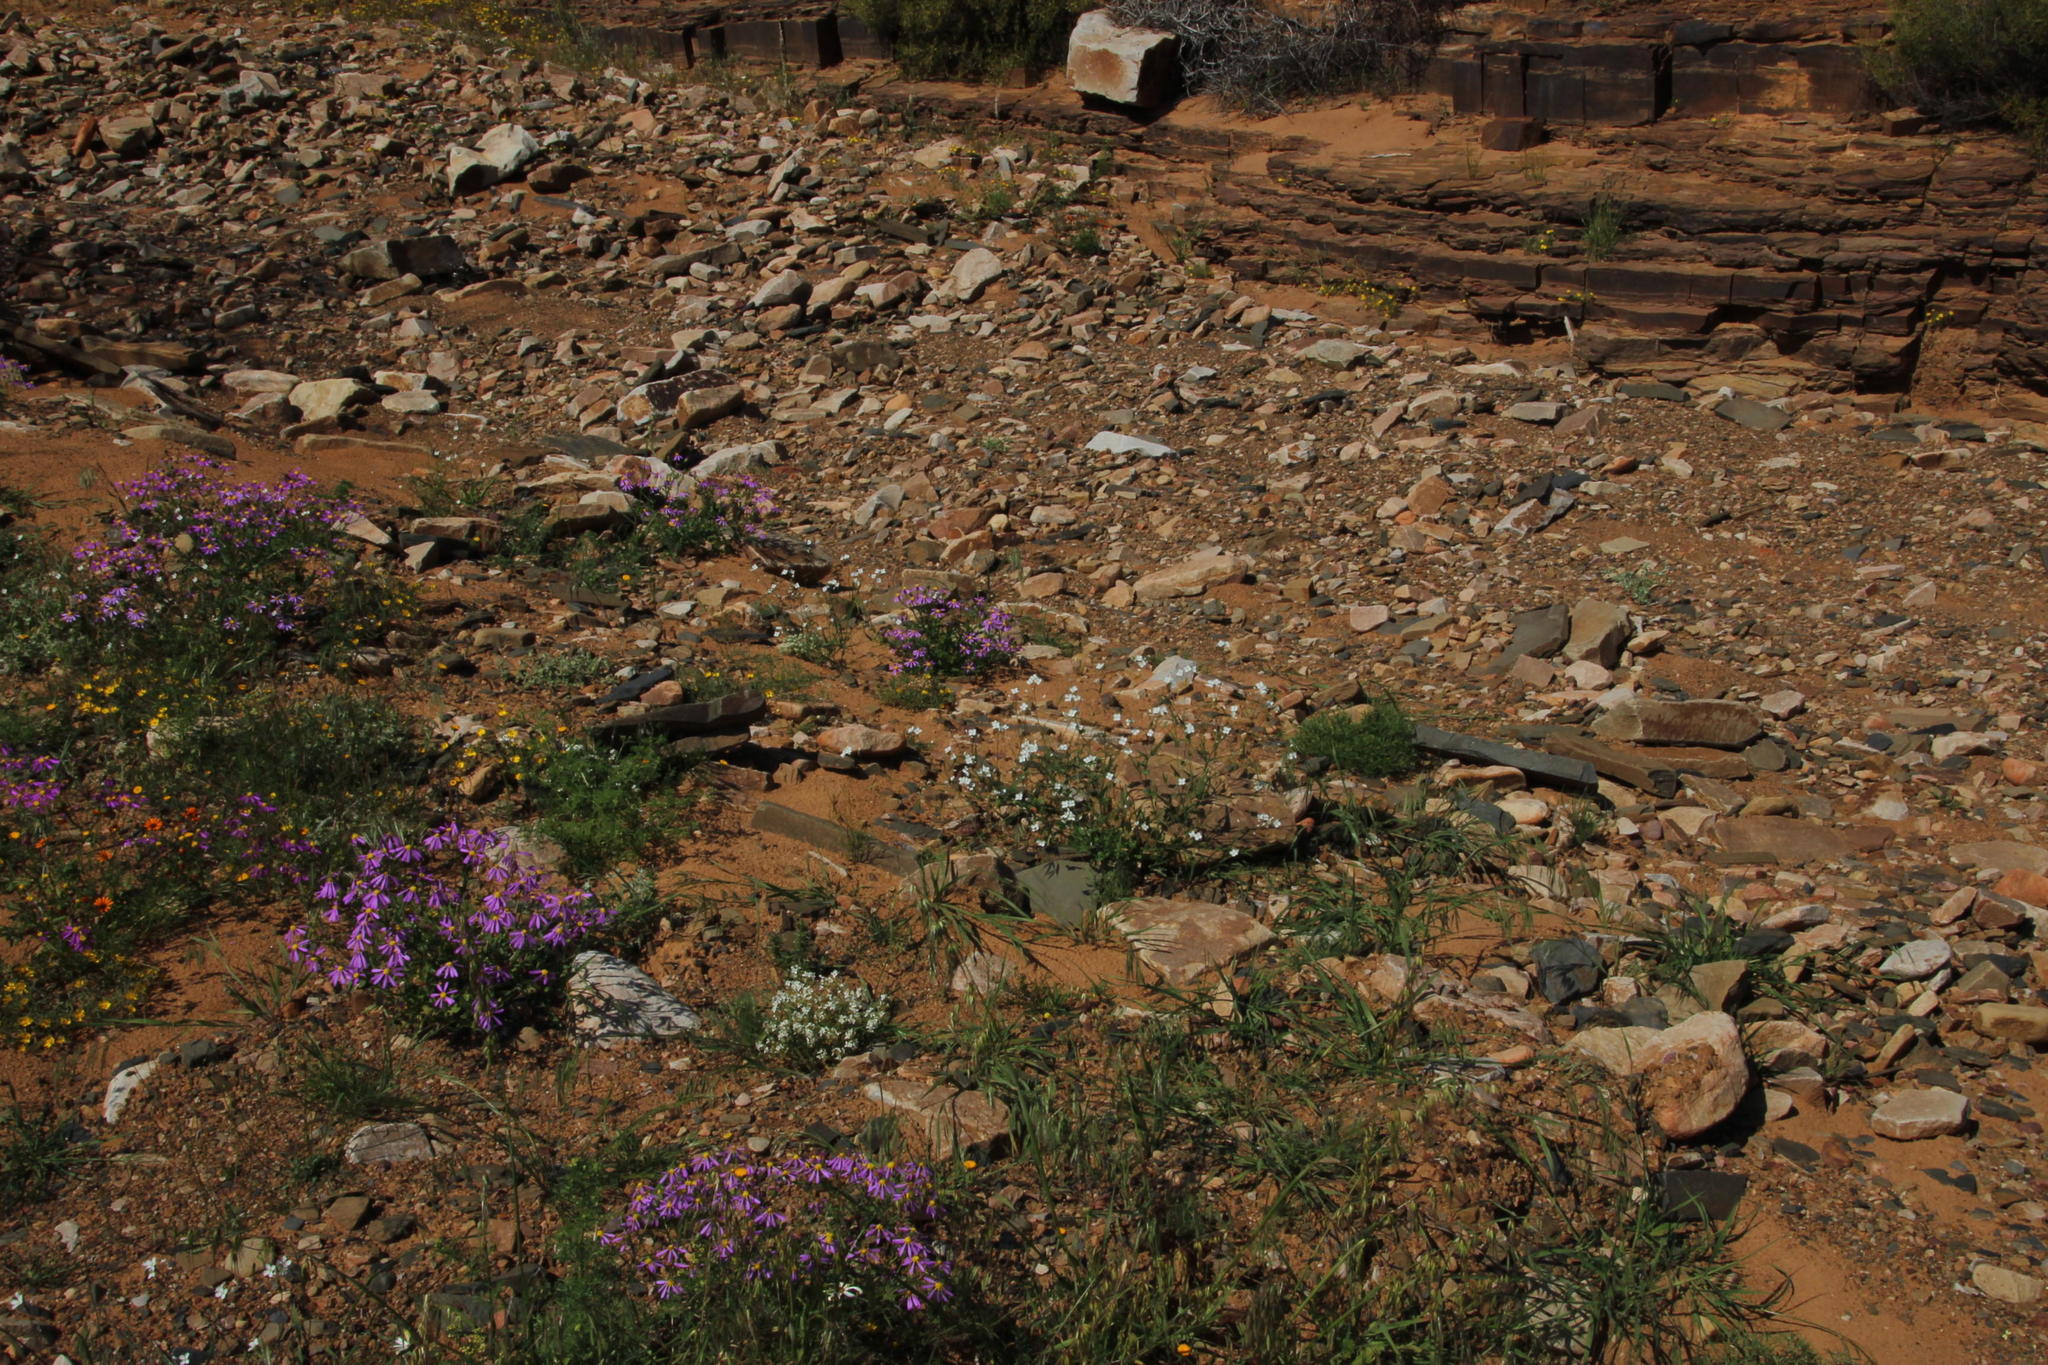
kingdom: Plantae
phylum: Tracheophyta
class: Magnoliopsida
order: Brassicales
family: Brassicaceae
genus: Heliophila
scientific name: Heliophila amplexicaulis
